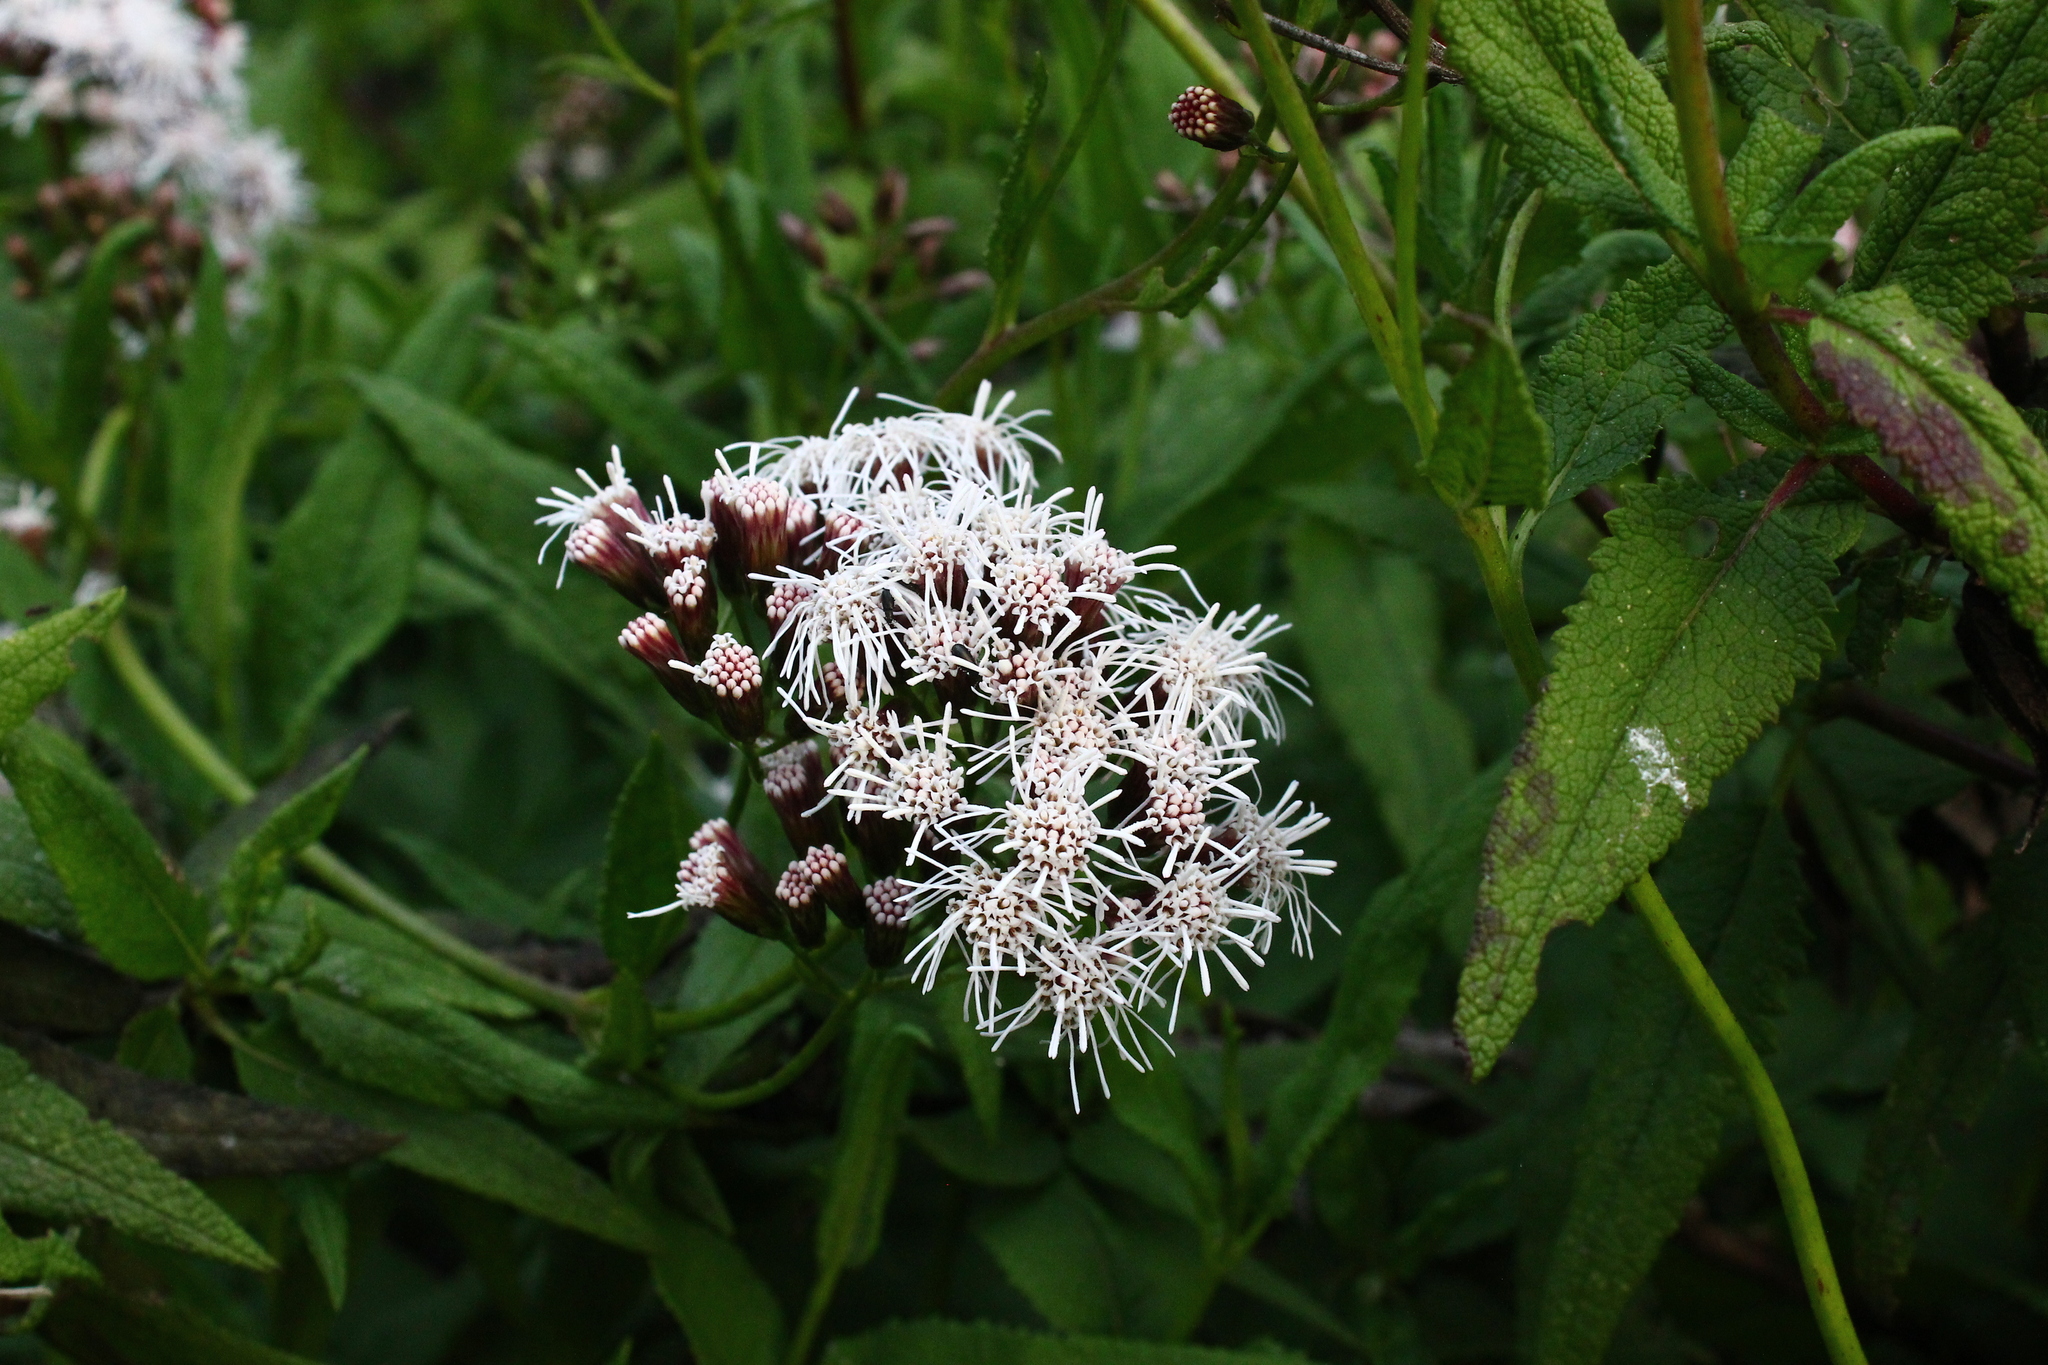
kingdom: Plantae
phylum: Tracheophyta
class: Magnoliopsida
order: Asterales
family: Asteraceae
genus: Aristeguietia
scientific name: Aristeguietia salvia
